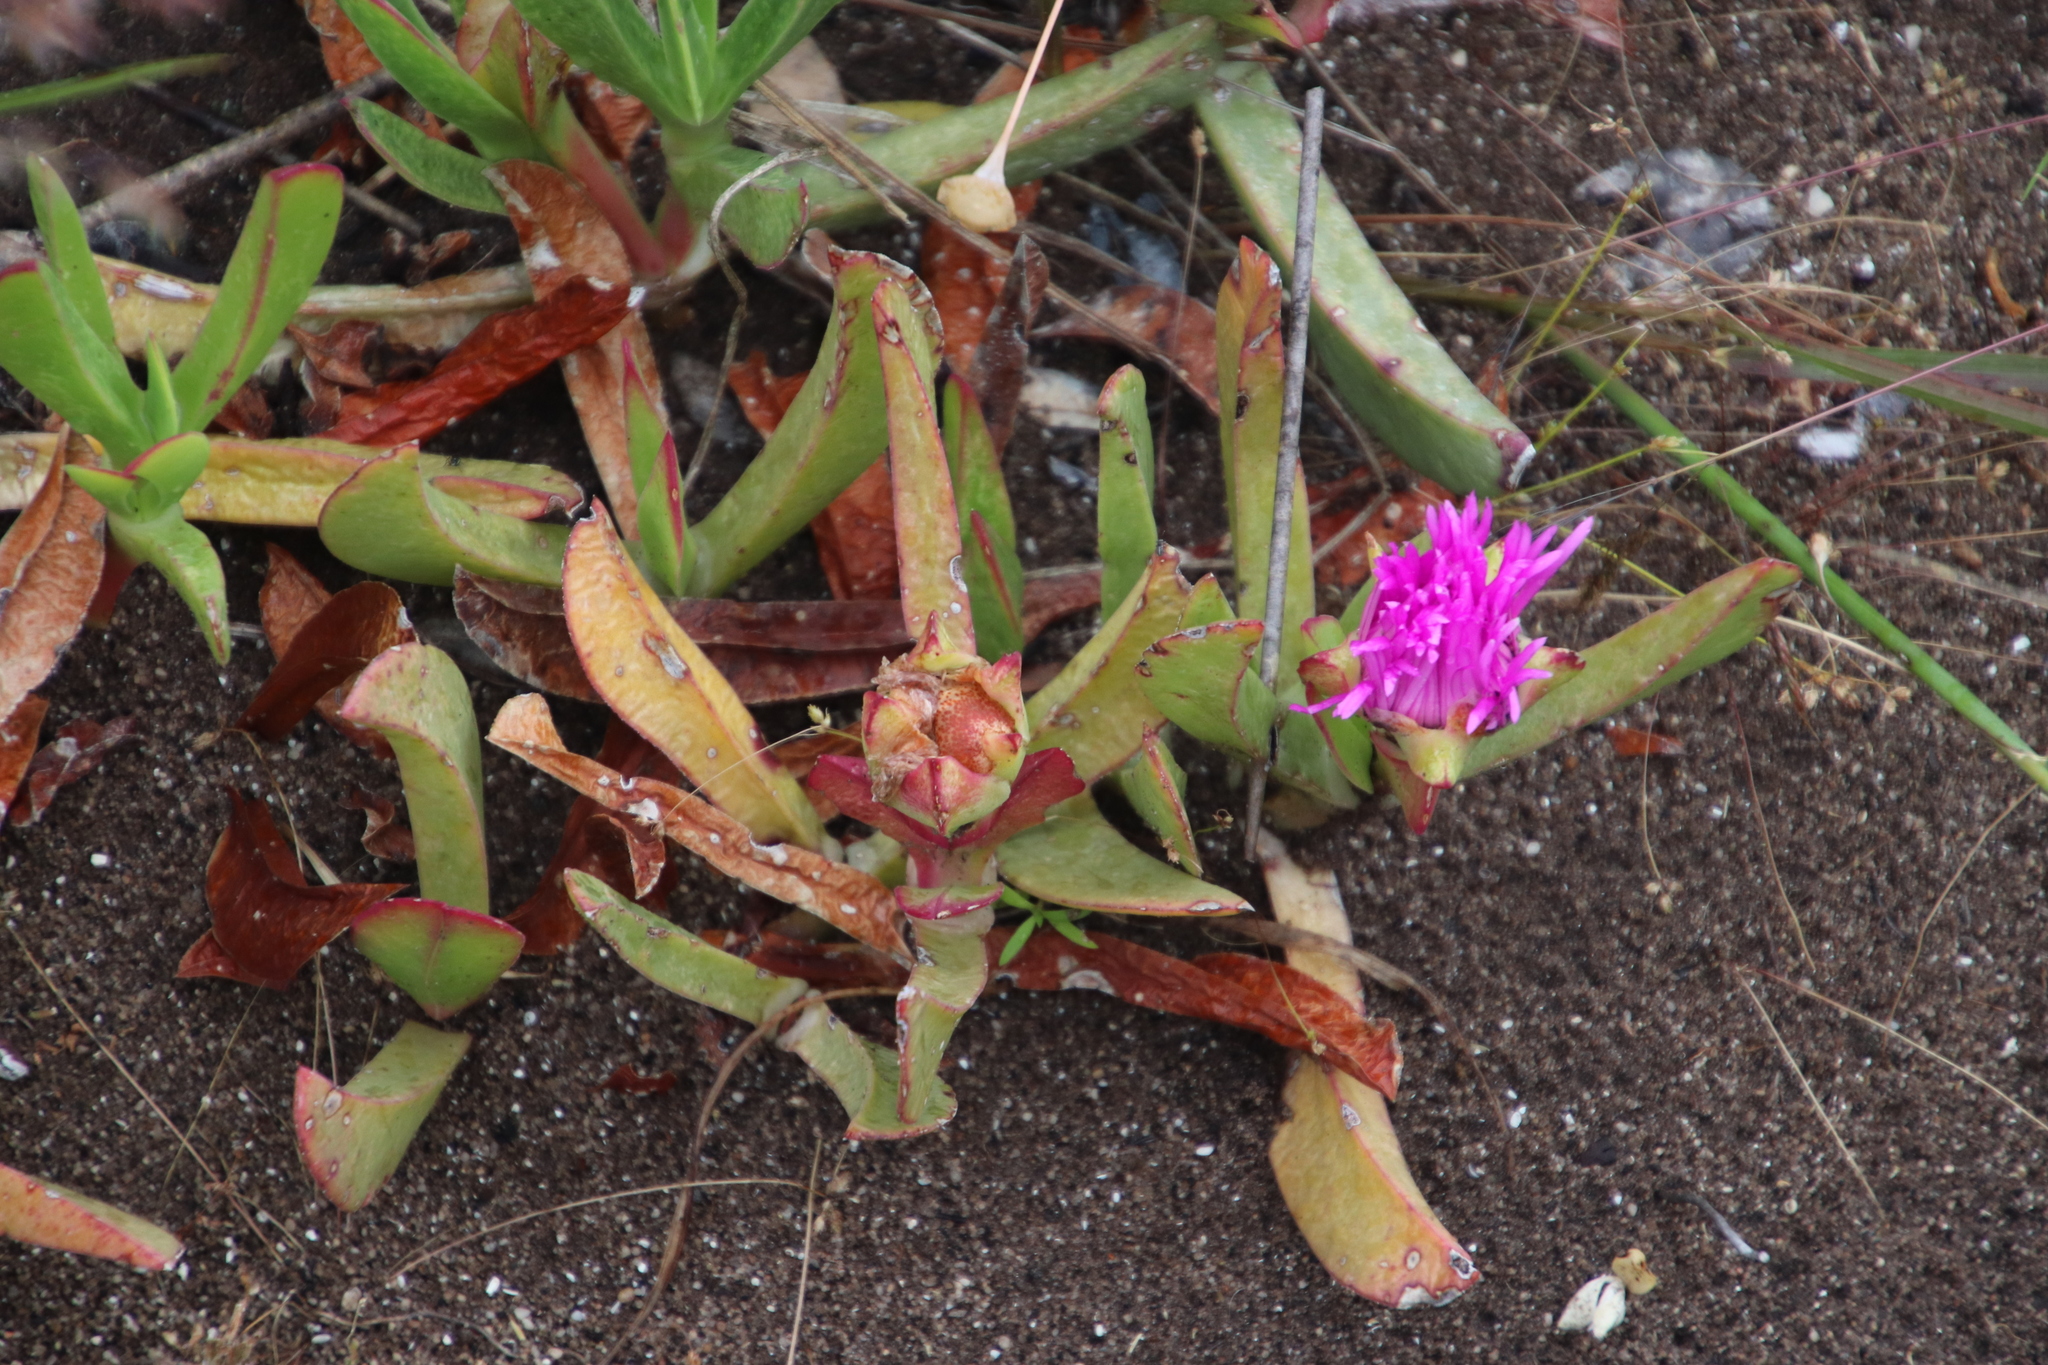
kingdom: Plantae
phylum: Tracheophyta
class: Magnoliopsida
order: Caryophyllales
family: Aizoaceae
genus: Carpobrotus
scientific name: Carpobrotus acinaciformis
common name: Sally-my-handsome
